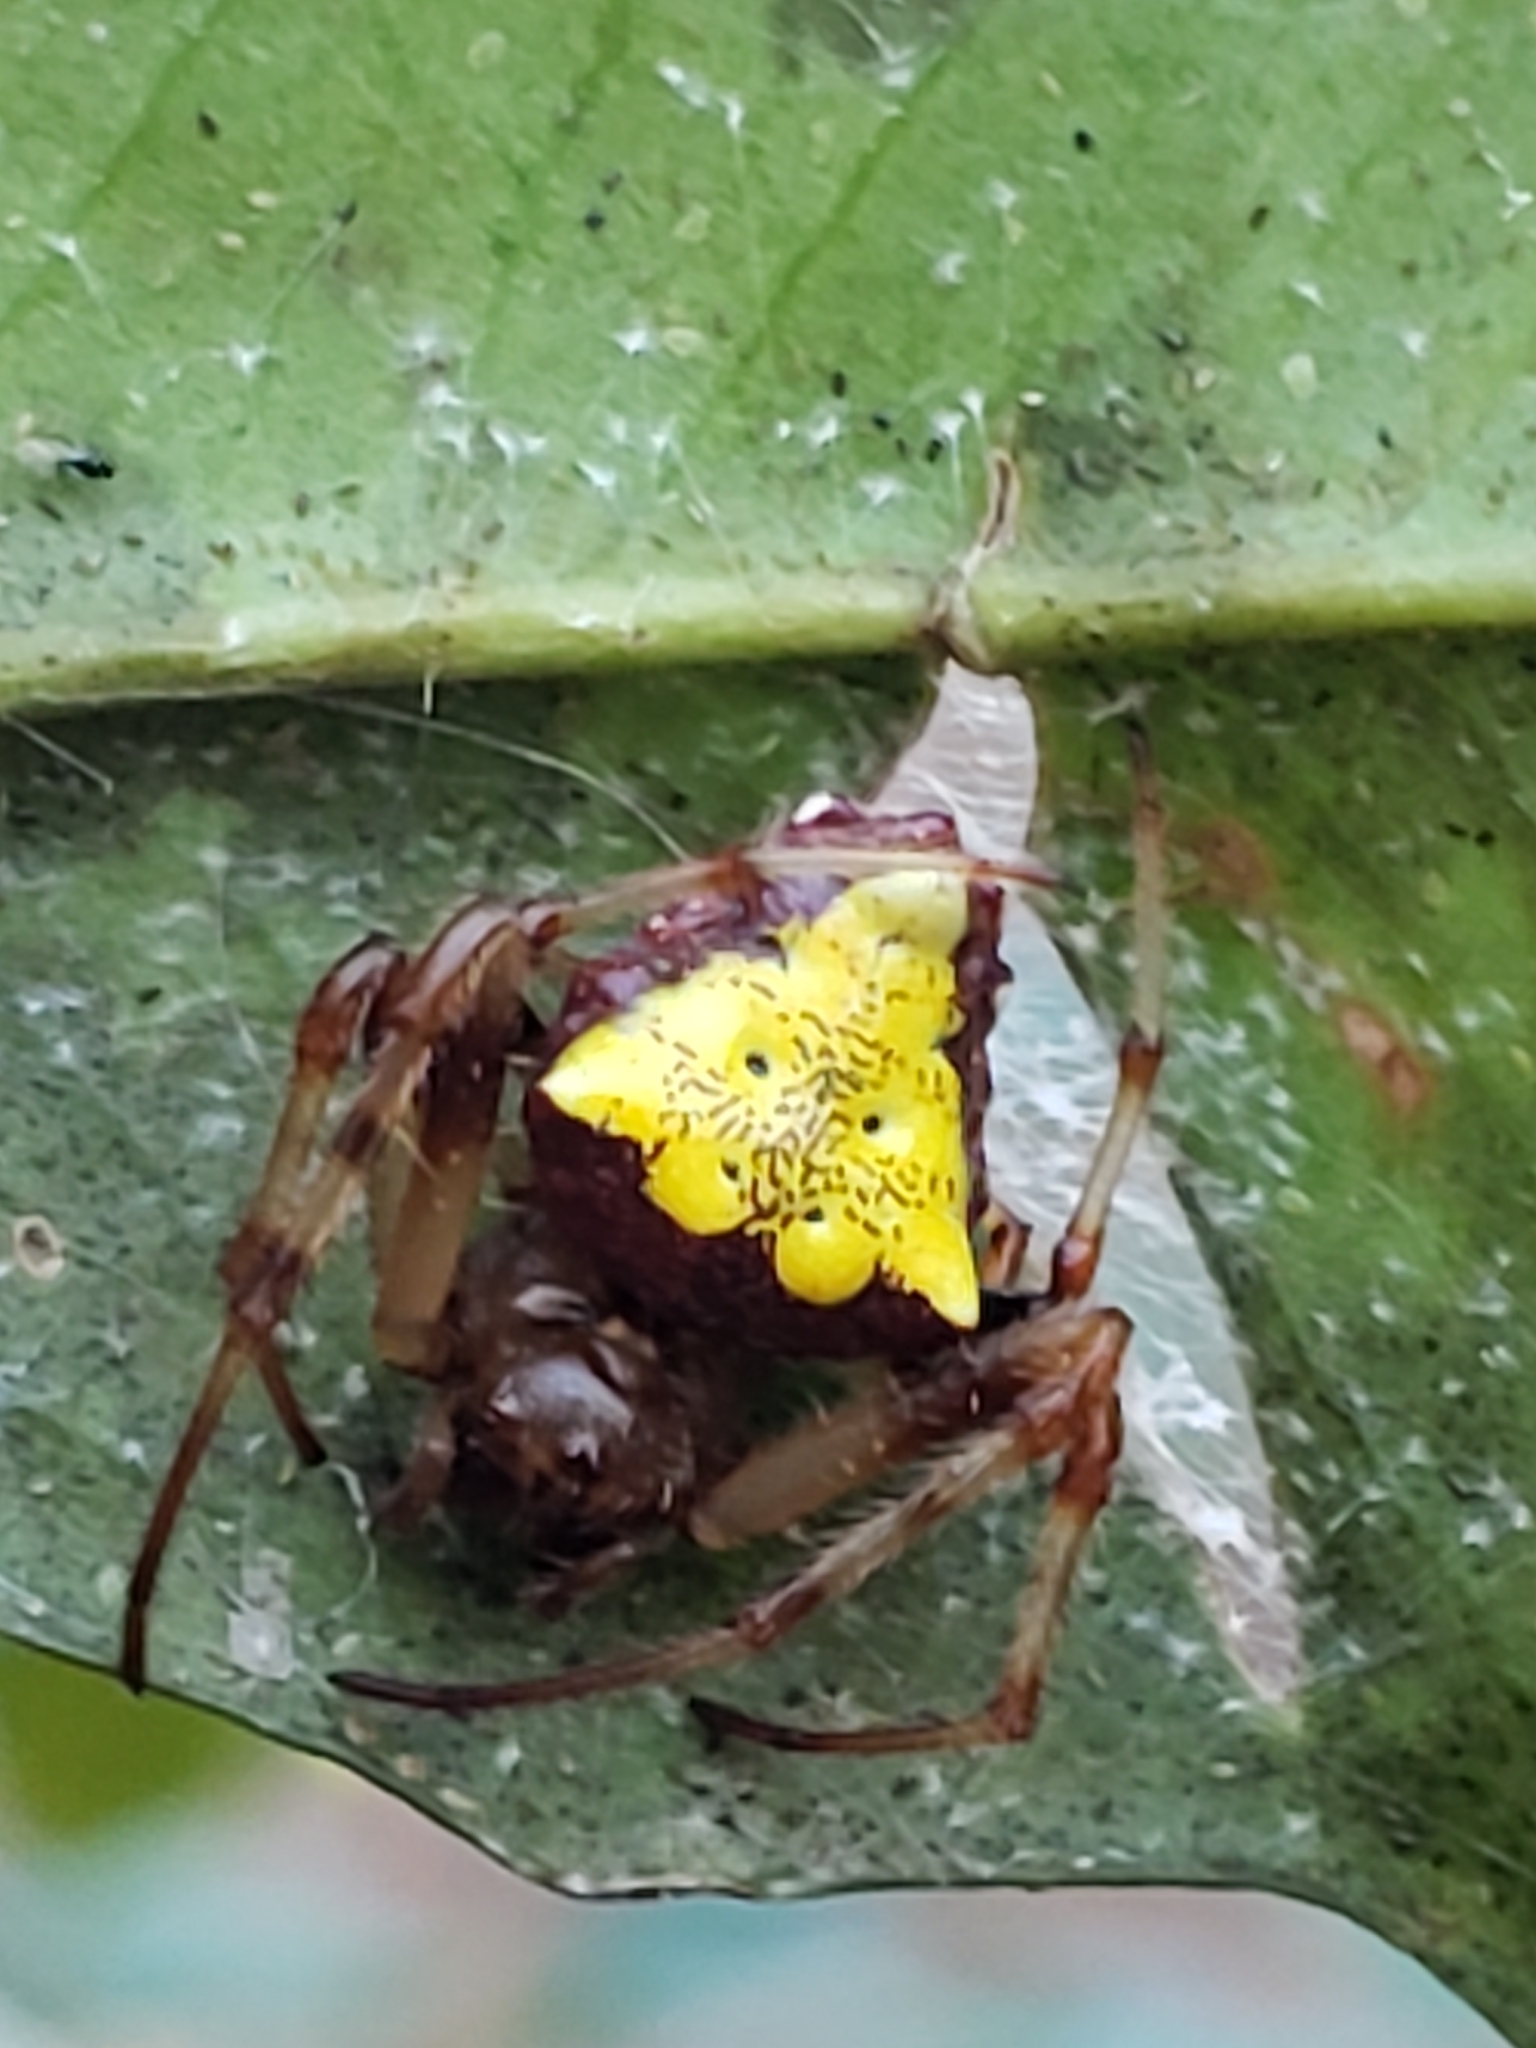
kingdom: Animalia
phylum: Arthropoda
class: Arachnida
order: Araneae
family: Araneidae
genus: Verrucosa
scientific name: Verrucosa arenata
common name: Orb weavers
